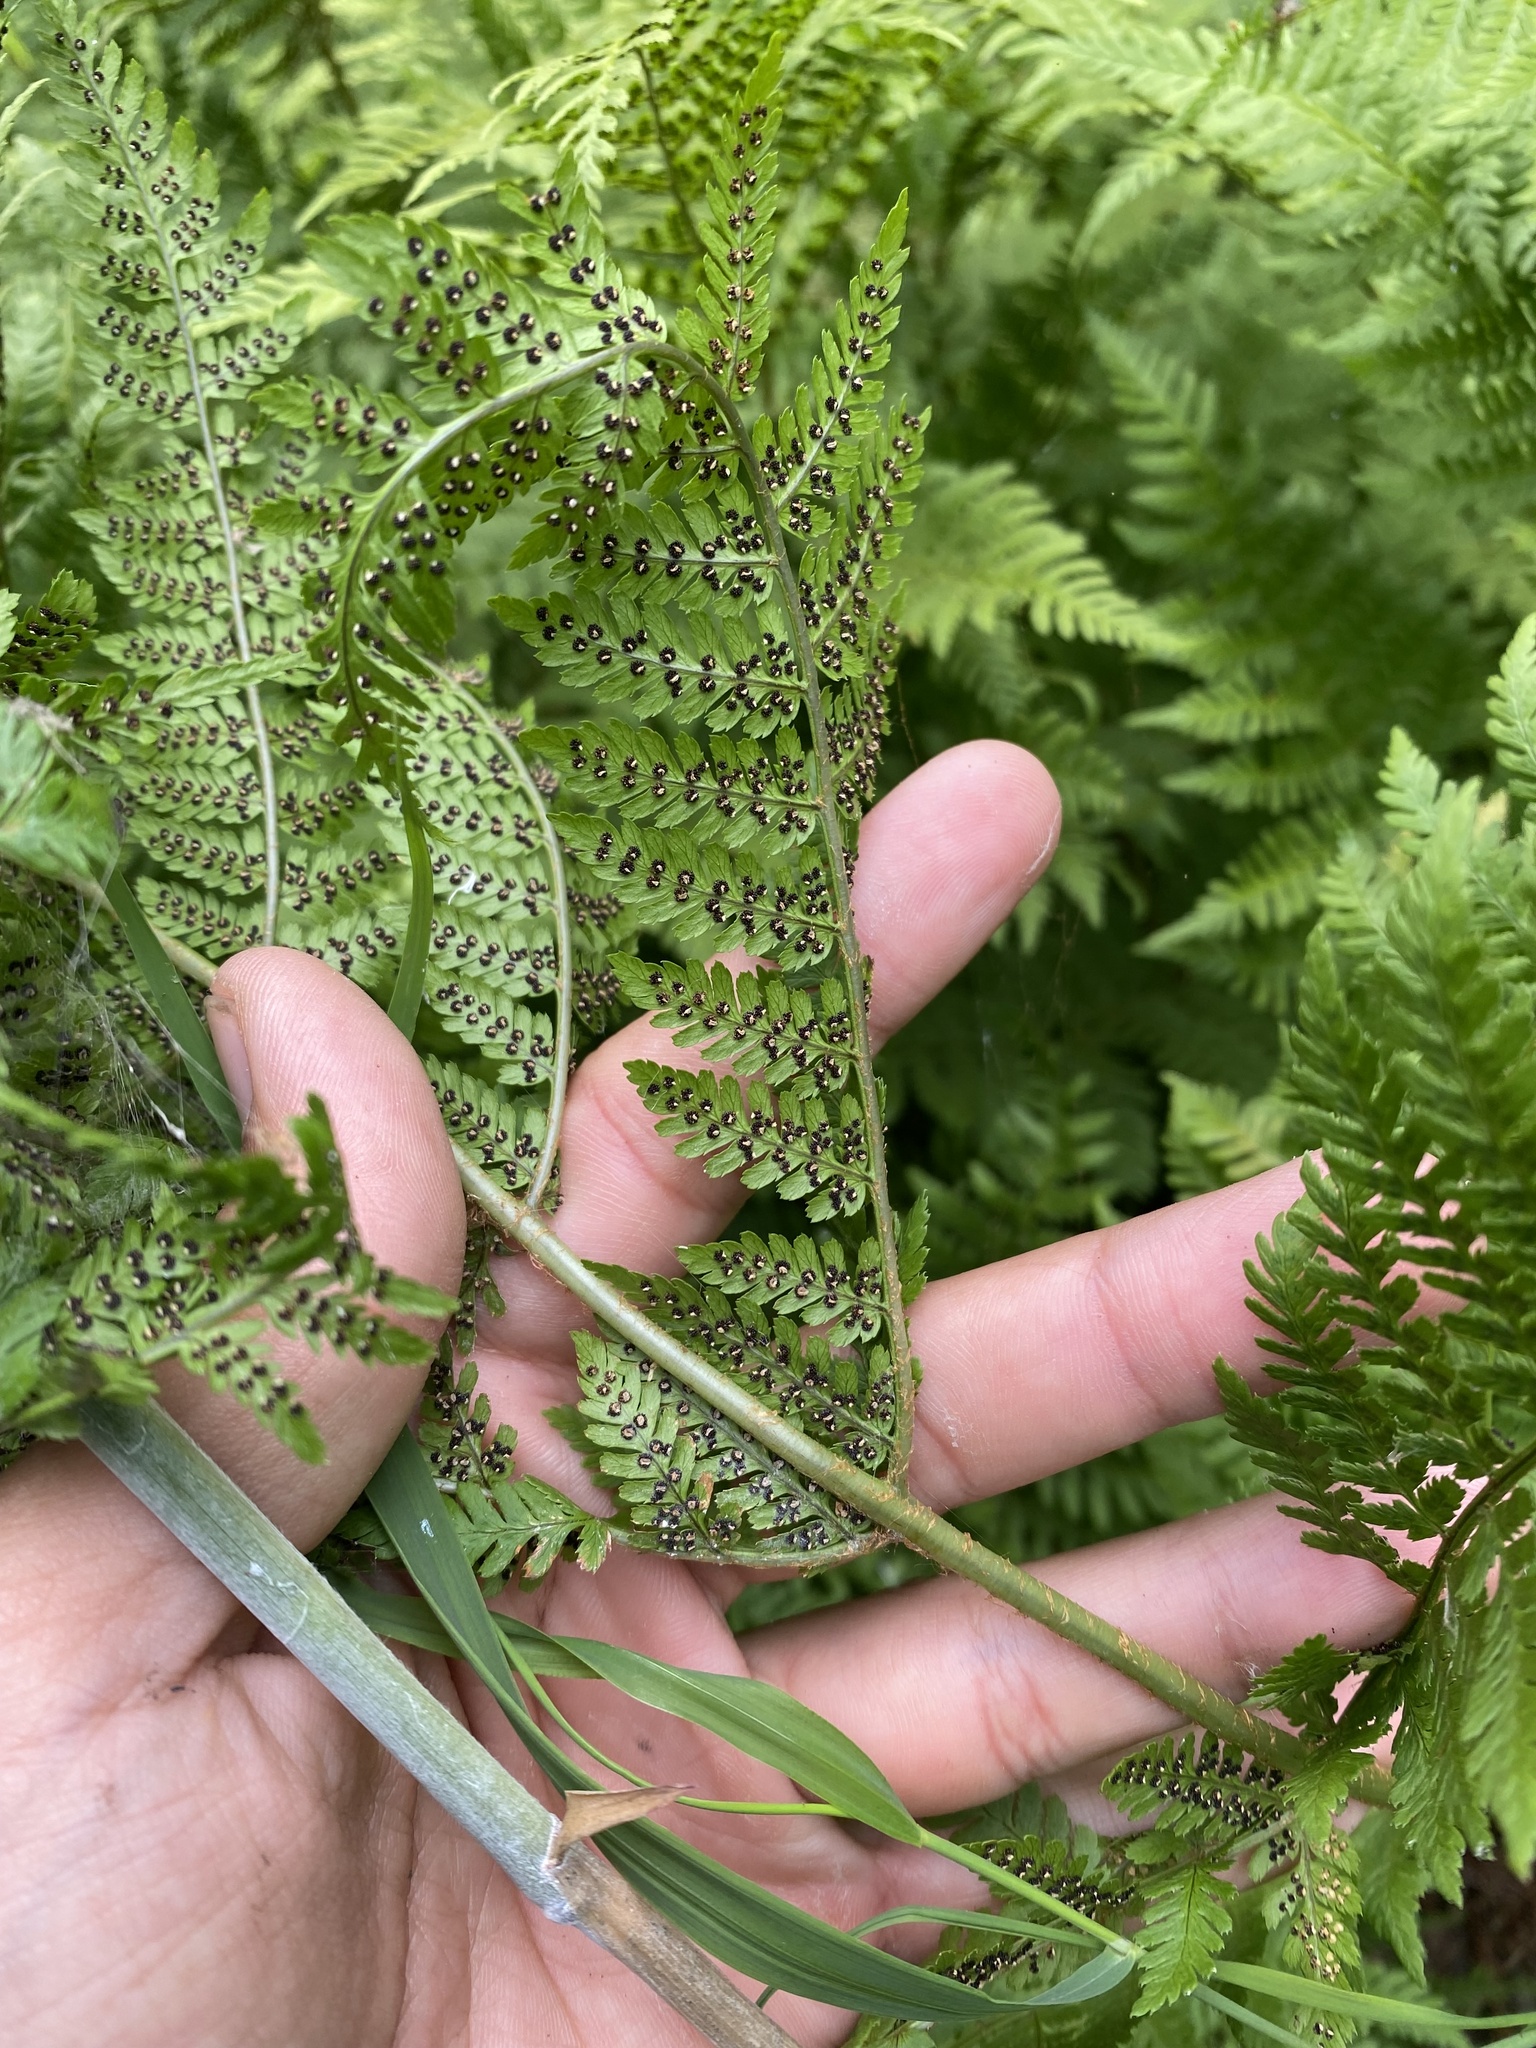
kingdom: Plantae
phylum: Tracheophyta
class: Polypodiopsida
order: Polypodiales
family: Dryopteridaceae
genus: Dryopteris
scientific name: Dryopteris expansa
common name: Northern buckler fern
